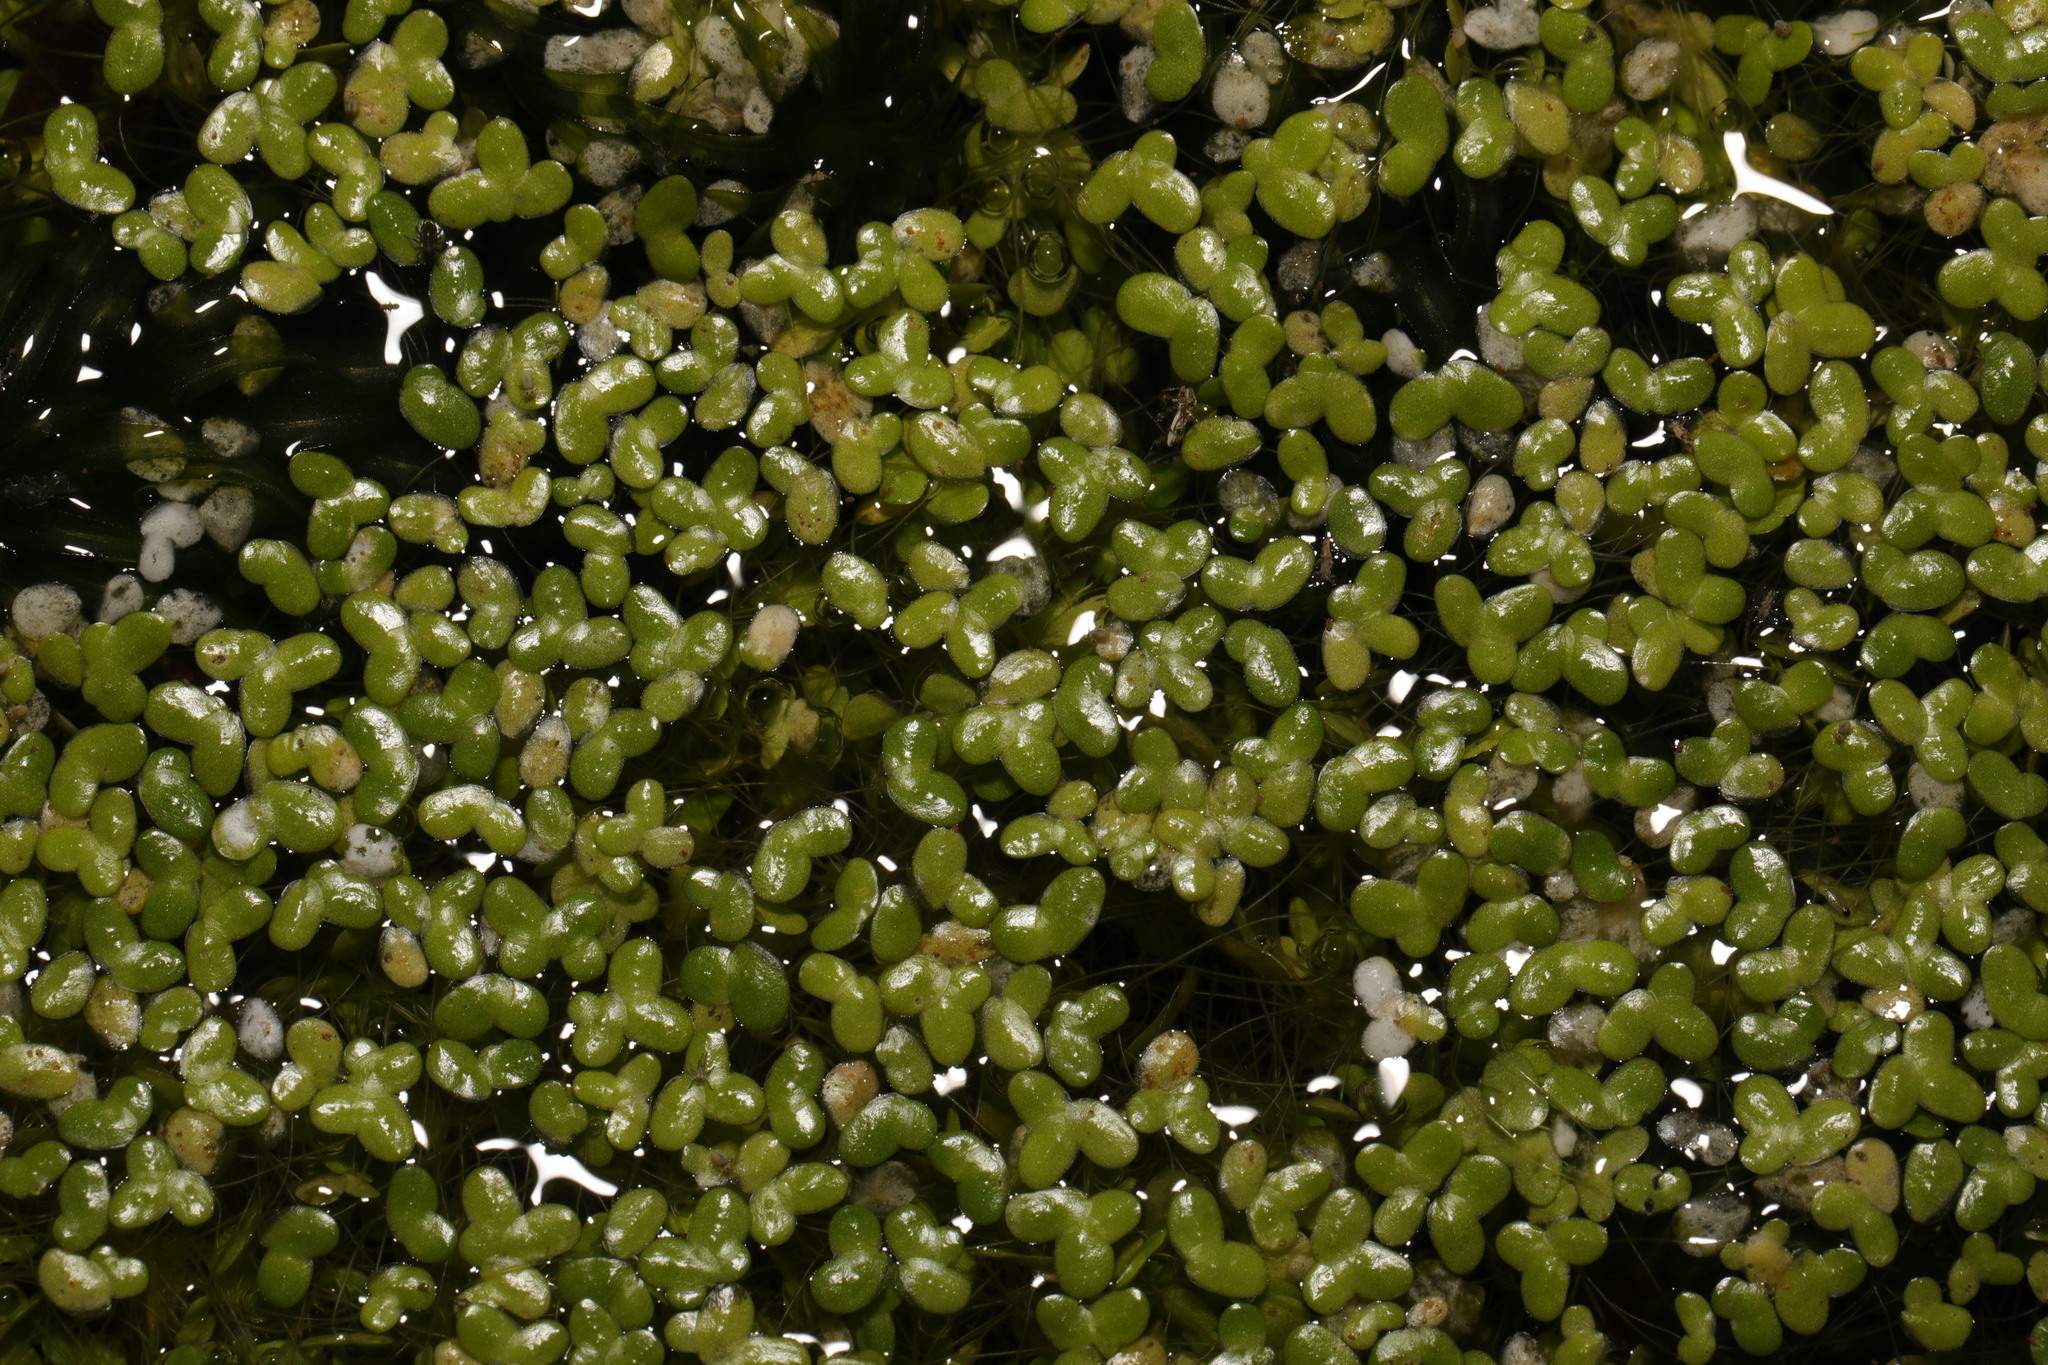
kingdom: Plantae
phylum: Tracheophyta
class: Liliopsida
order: Alismatales
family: Araceae
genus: Lemna
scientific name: Lemna minor
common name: Common duckweed
